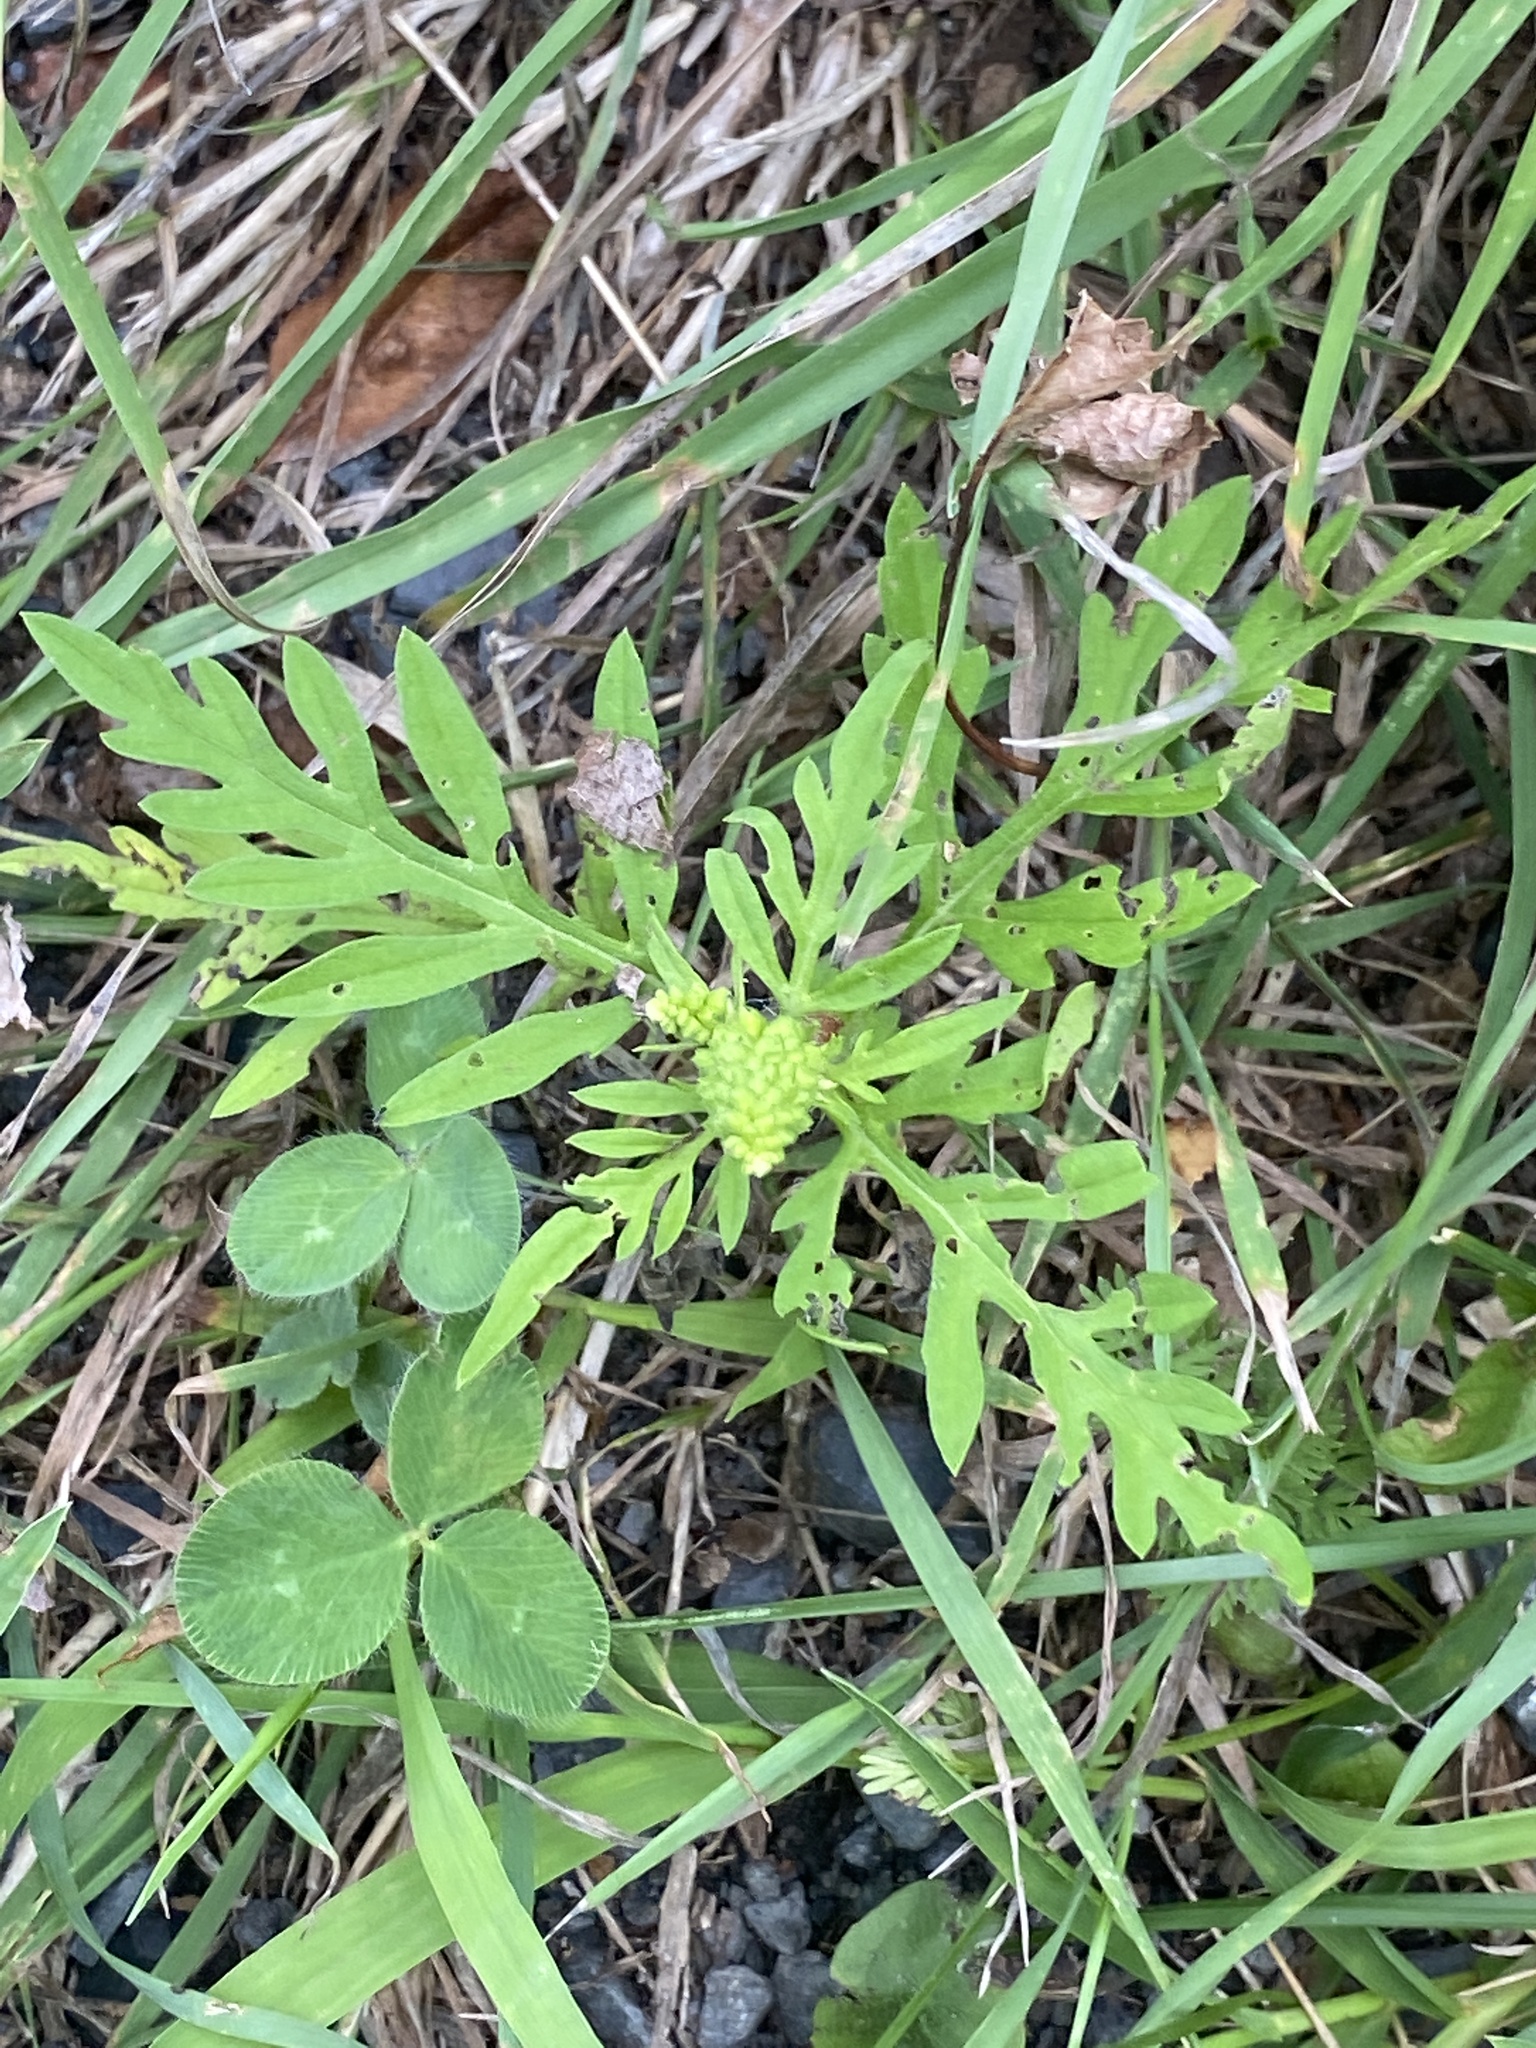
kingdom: Plantae
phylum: Tracheophyta
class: Magnoliopsida
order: Asterales
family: Asteraceae
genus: Ambrosia
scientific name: Ambrosia artemisiifolia
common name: Annual ragweed
